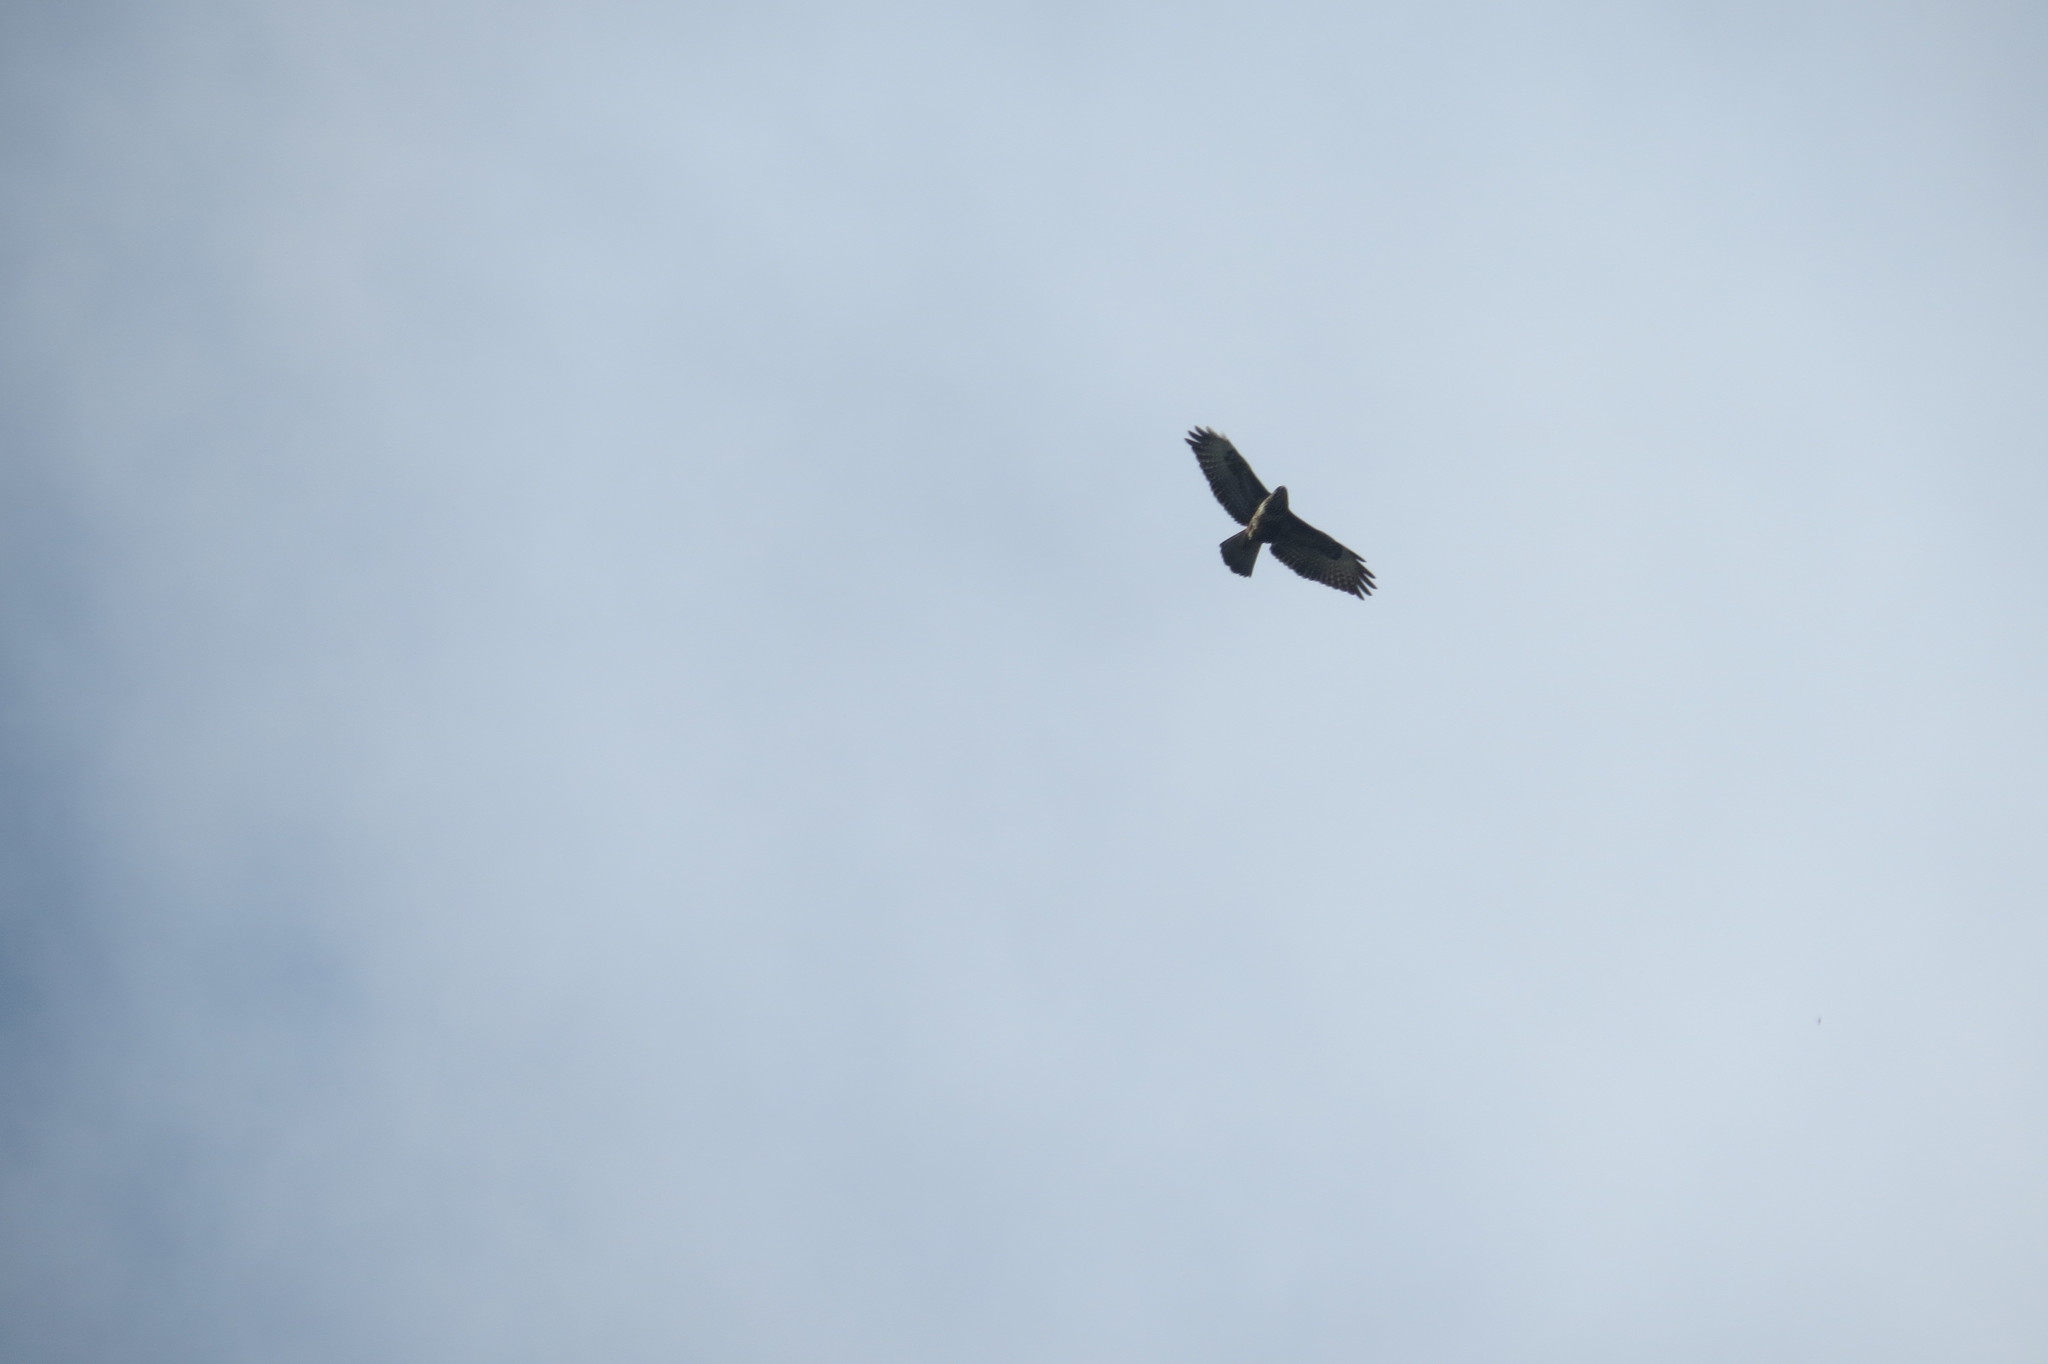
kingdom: Animalia
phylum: Chordata
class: Aves
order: Accipitriformes
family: Accipitridae
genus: Buteo
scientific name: Buteo buteo
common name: Common buzzard
